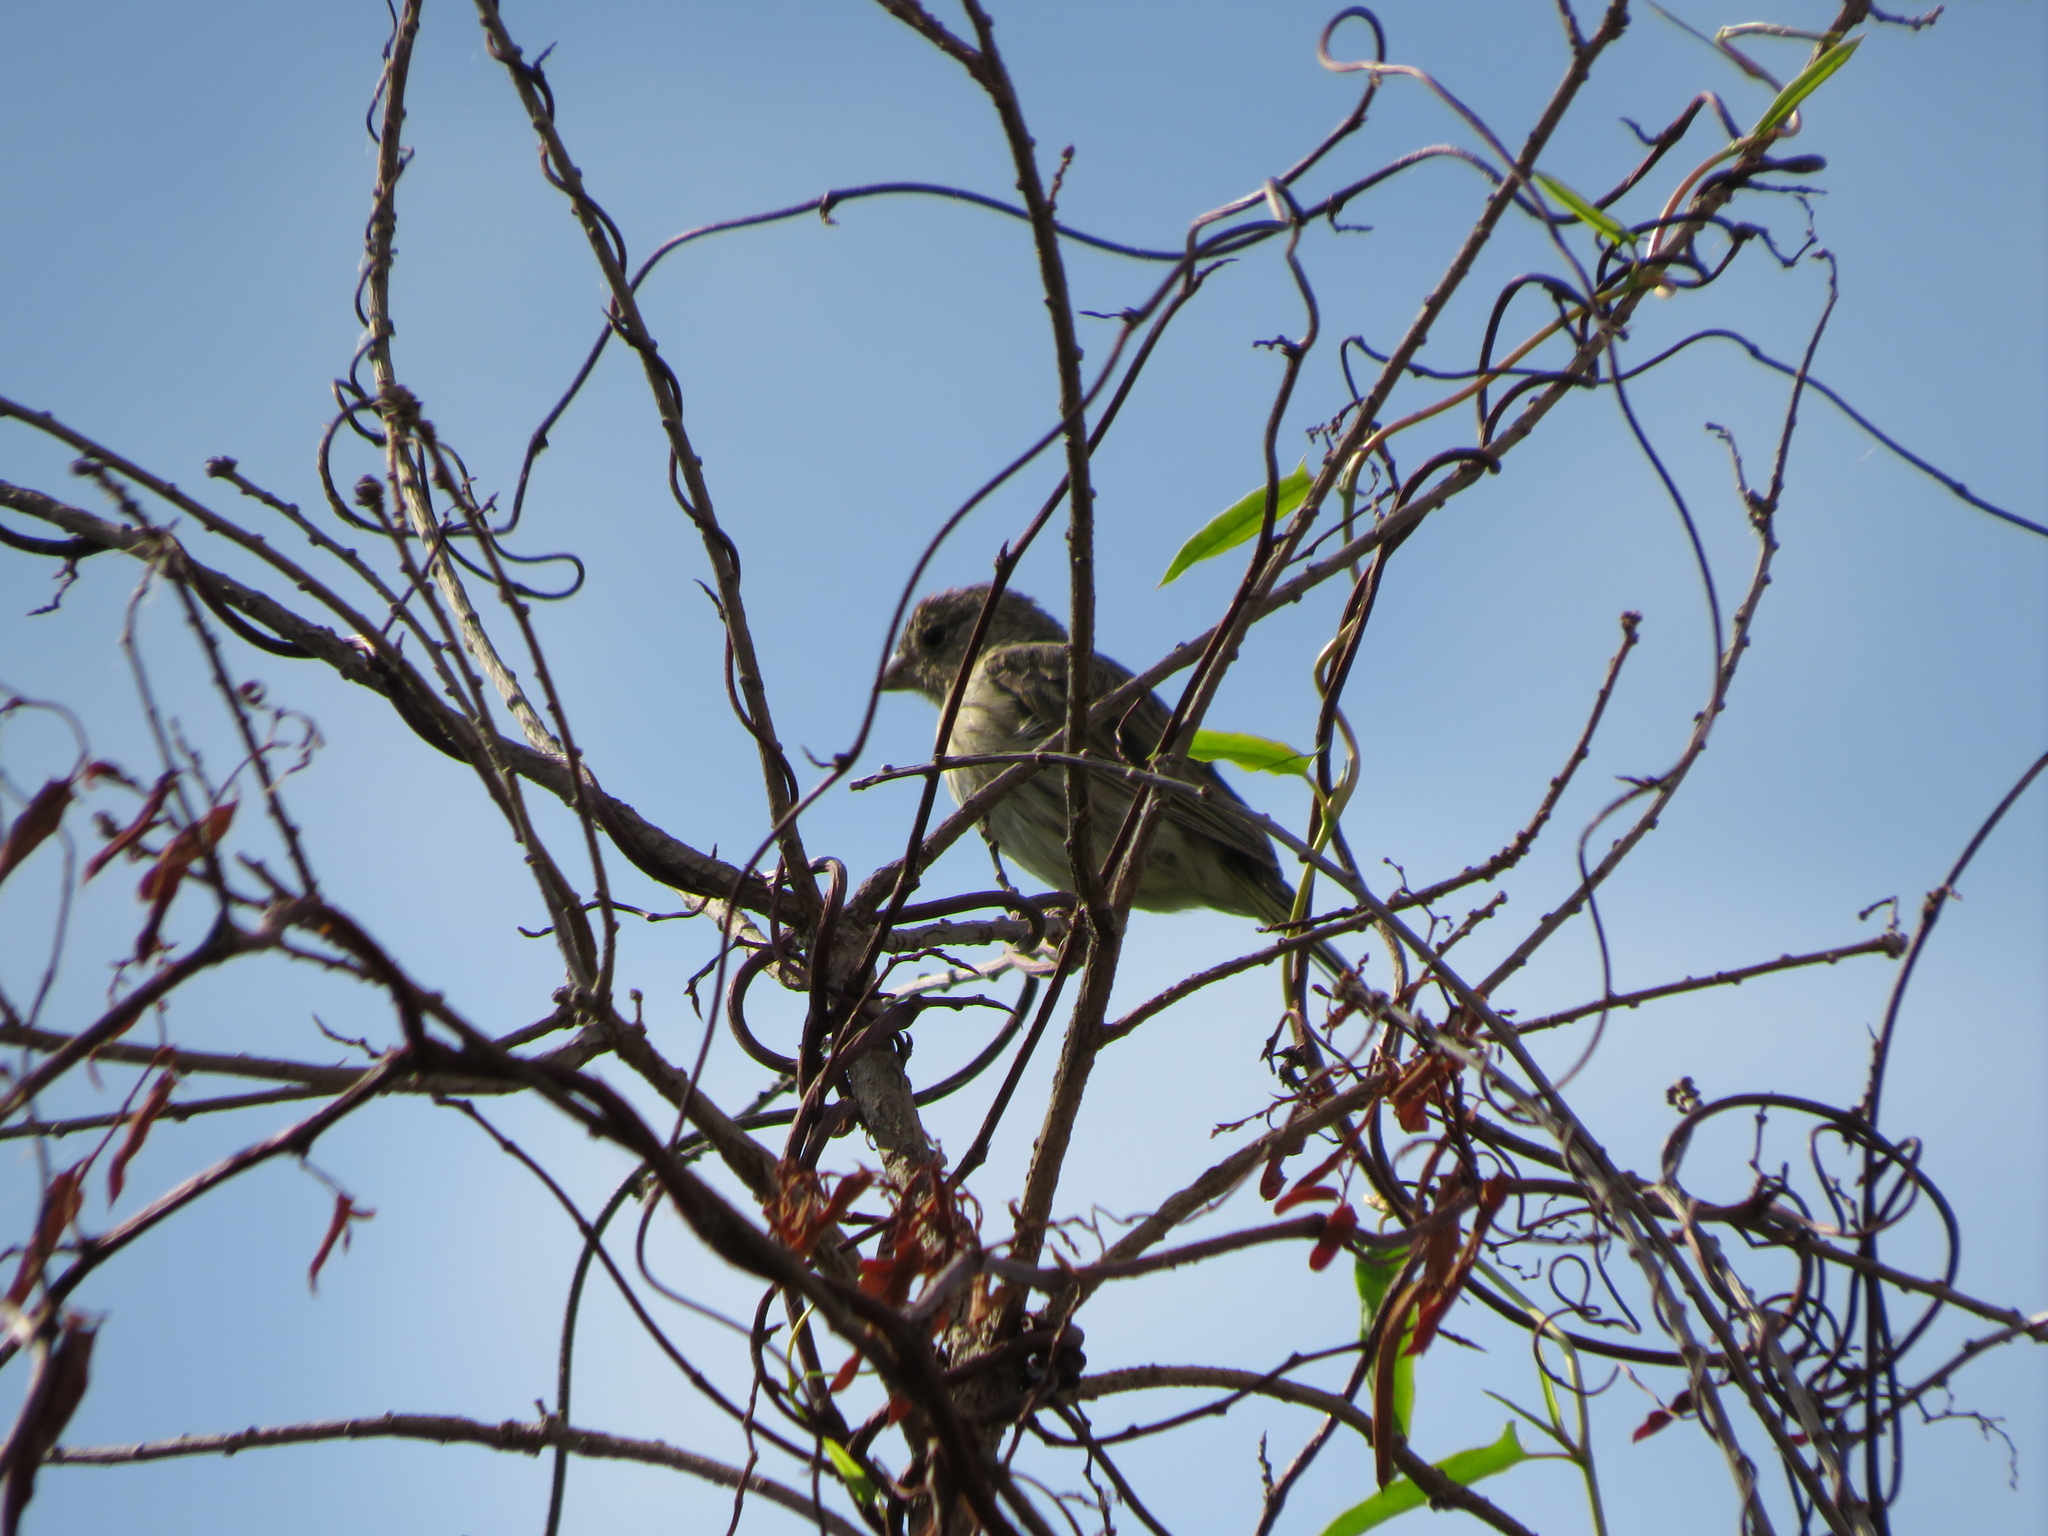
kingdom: Animalia
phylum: Chordata
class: Aves
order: Passeriformes
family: Thraupidae
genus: Sicalis
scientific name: Sicalis flaveola
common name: Saffron finch
